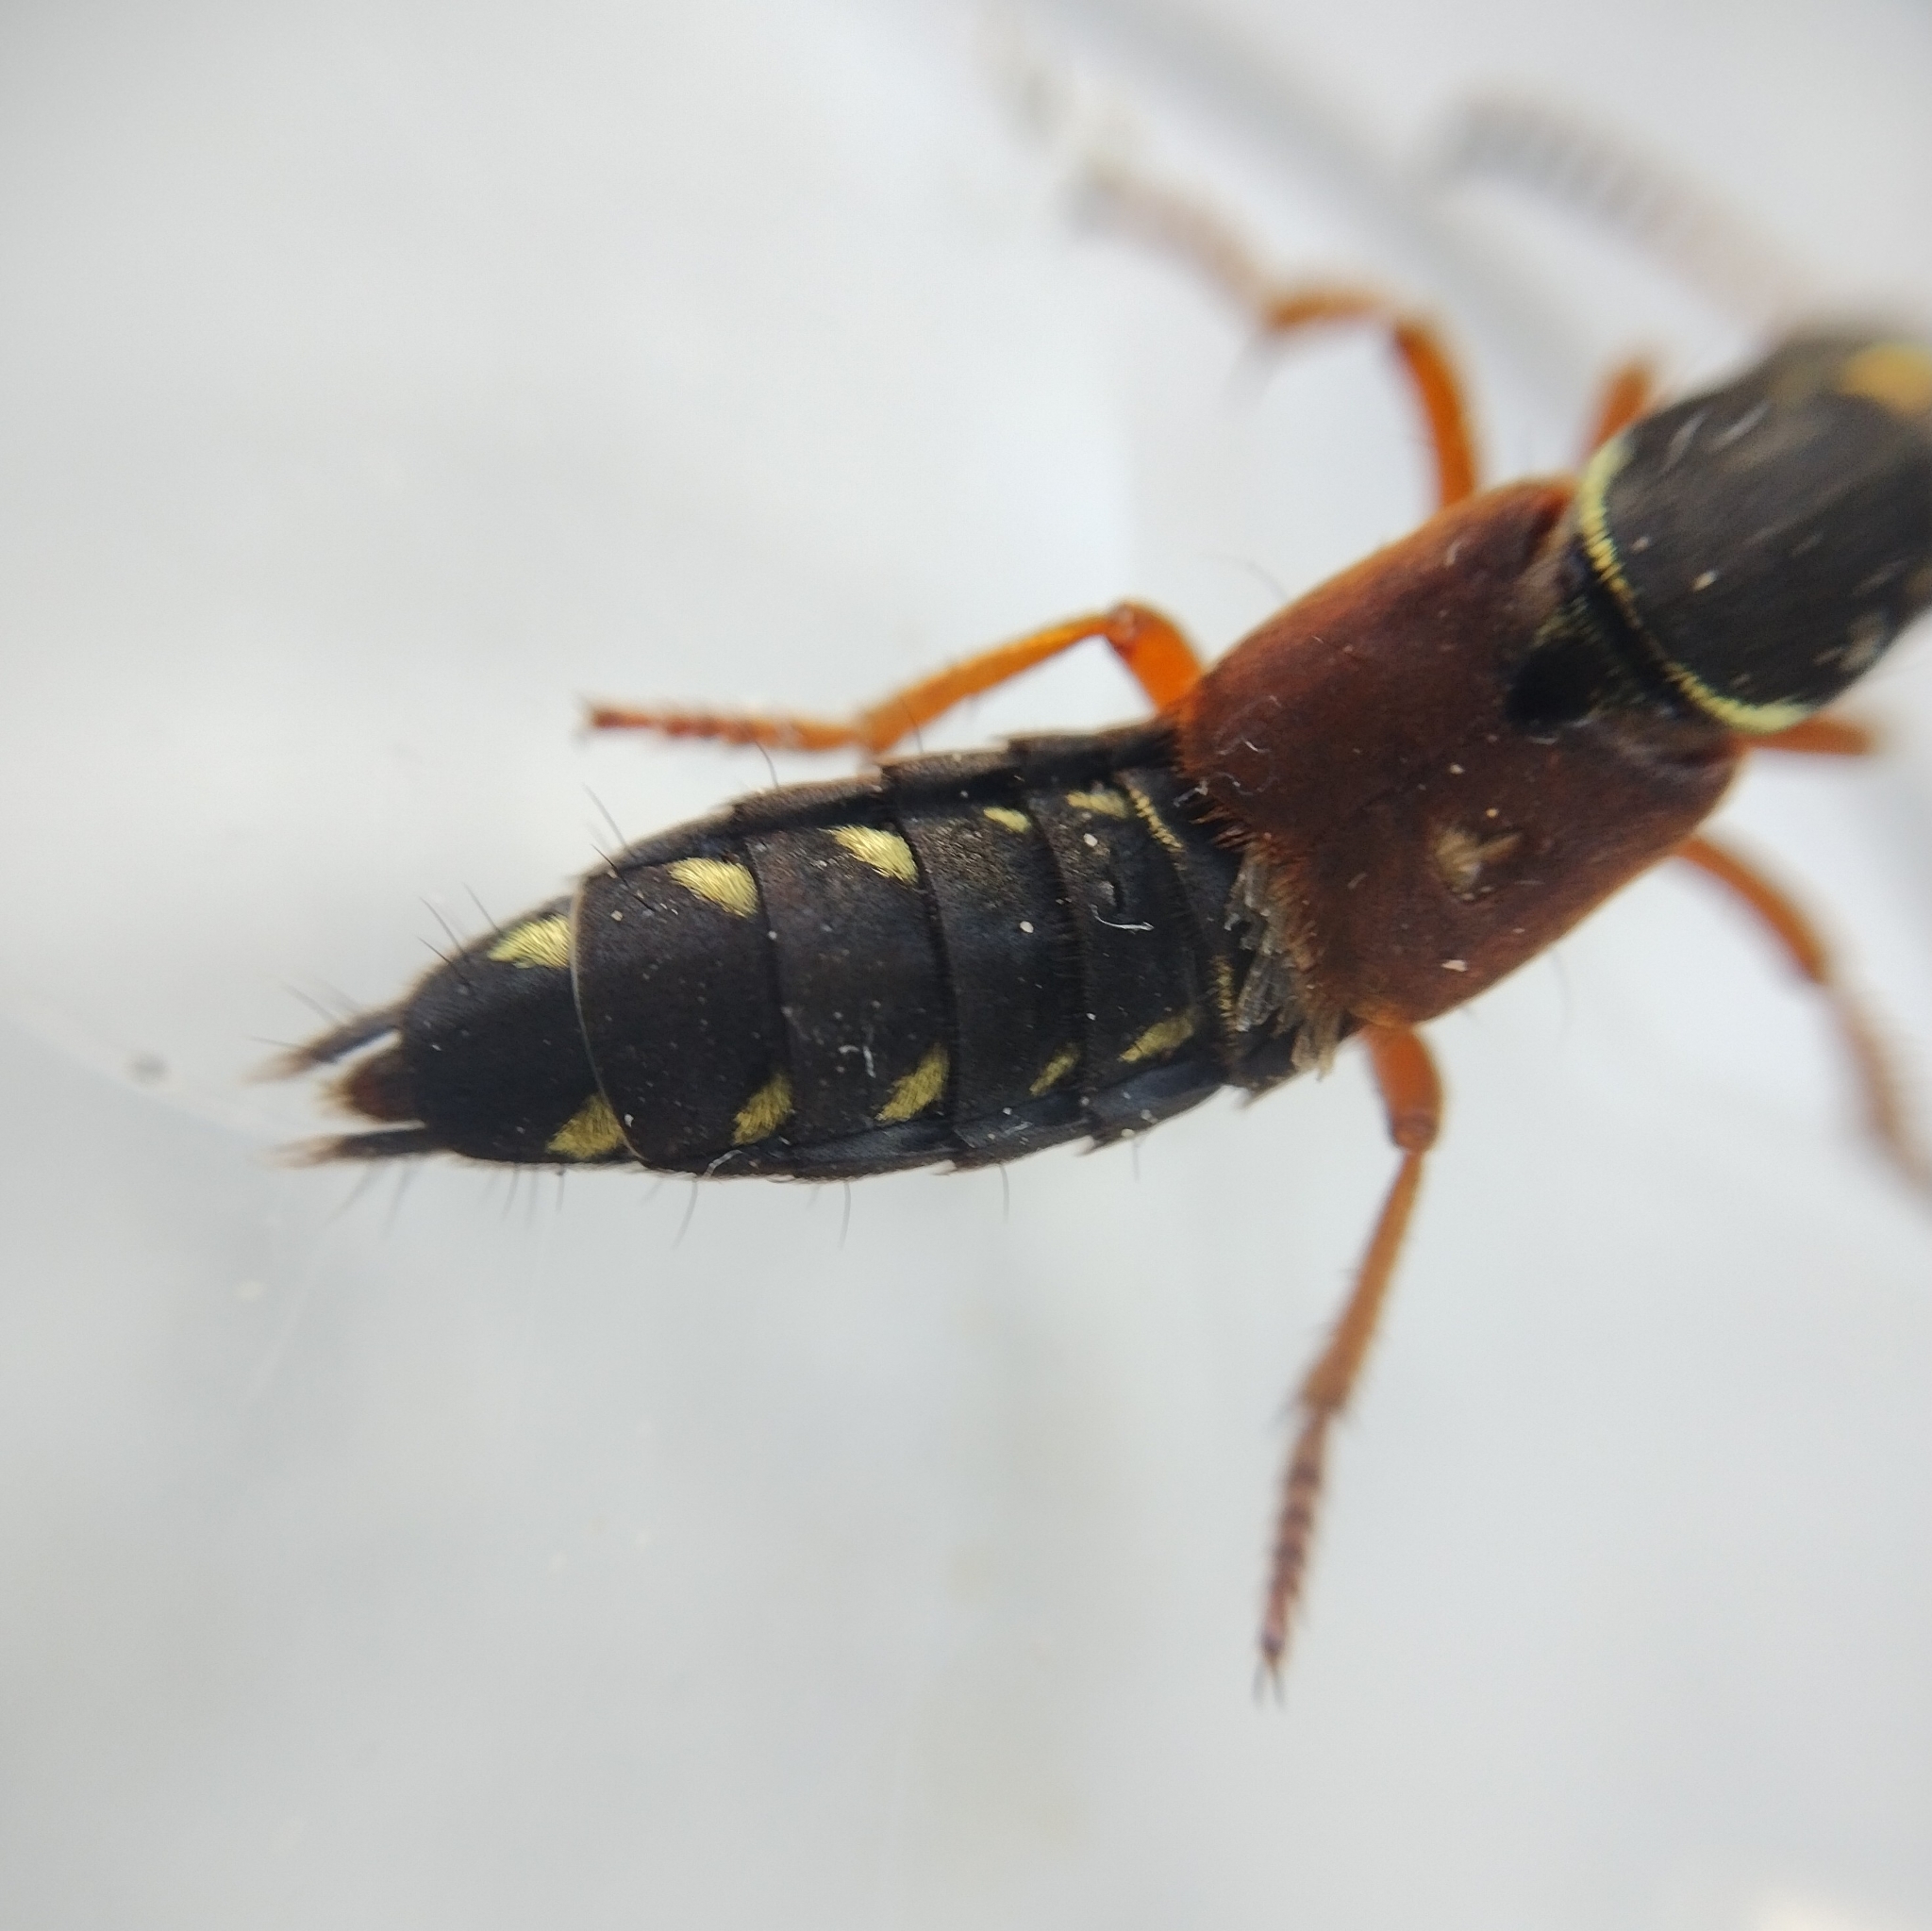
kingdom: Animalia
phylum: Arthropoda
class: Insecta
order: Coleoptera
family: Staphylinidae
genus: Staphylinus
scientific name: Staphylinus dimidiaticornis
